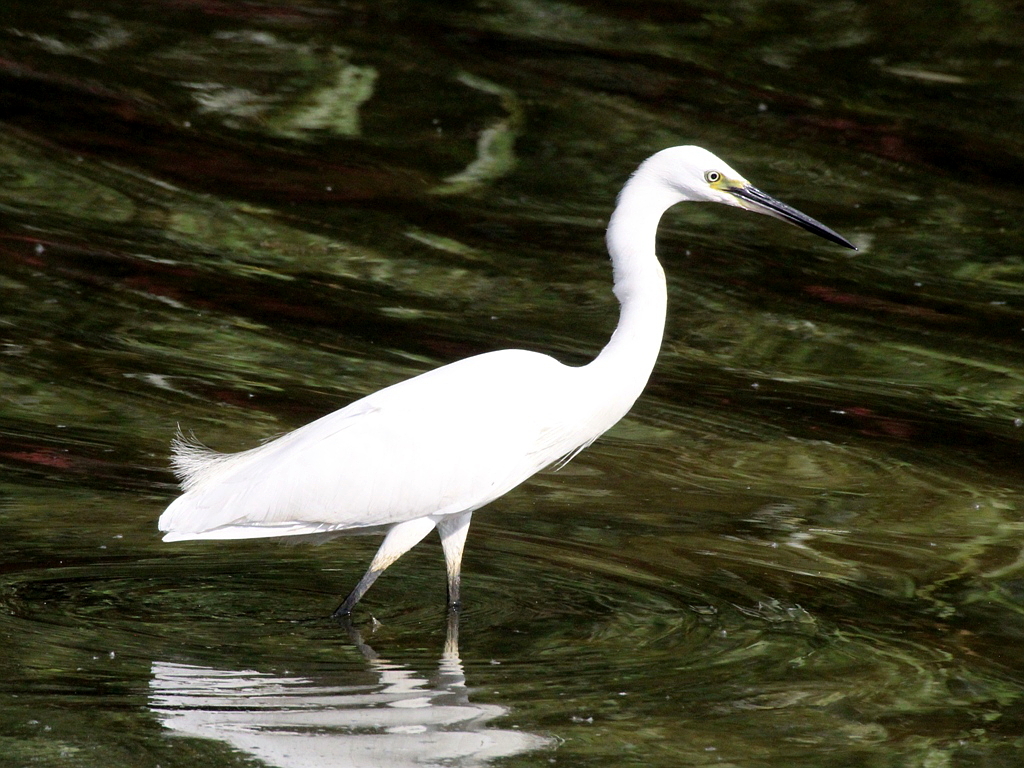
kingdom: Animalia
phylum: Chordata
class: Aves
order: Pelecaniformes
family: Ardeidae
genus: Egretta
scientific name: Egretta garzetta
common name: Little egret
